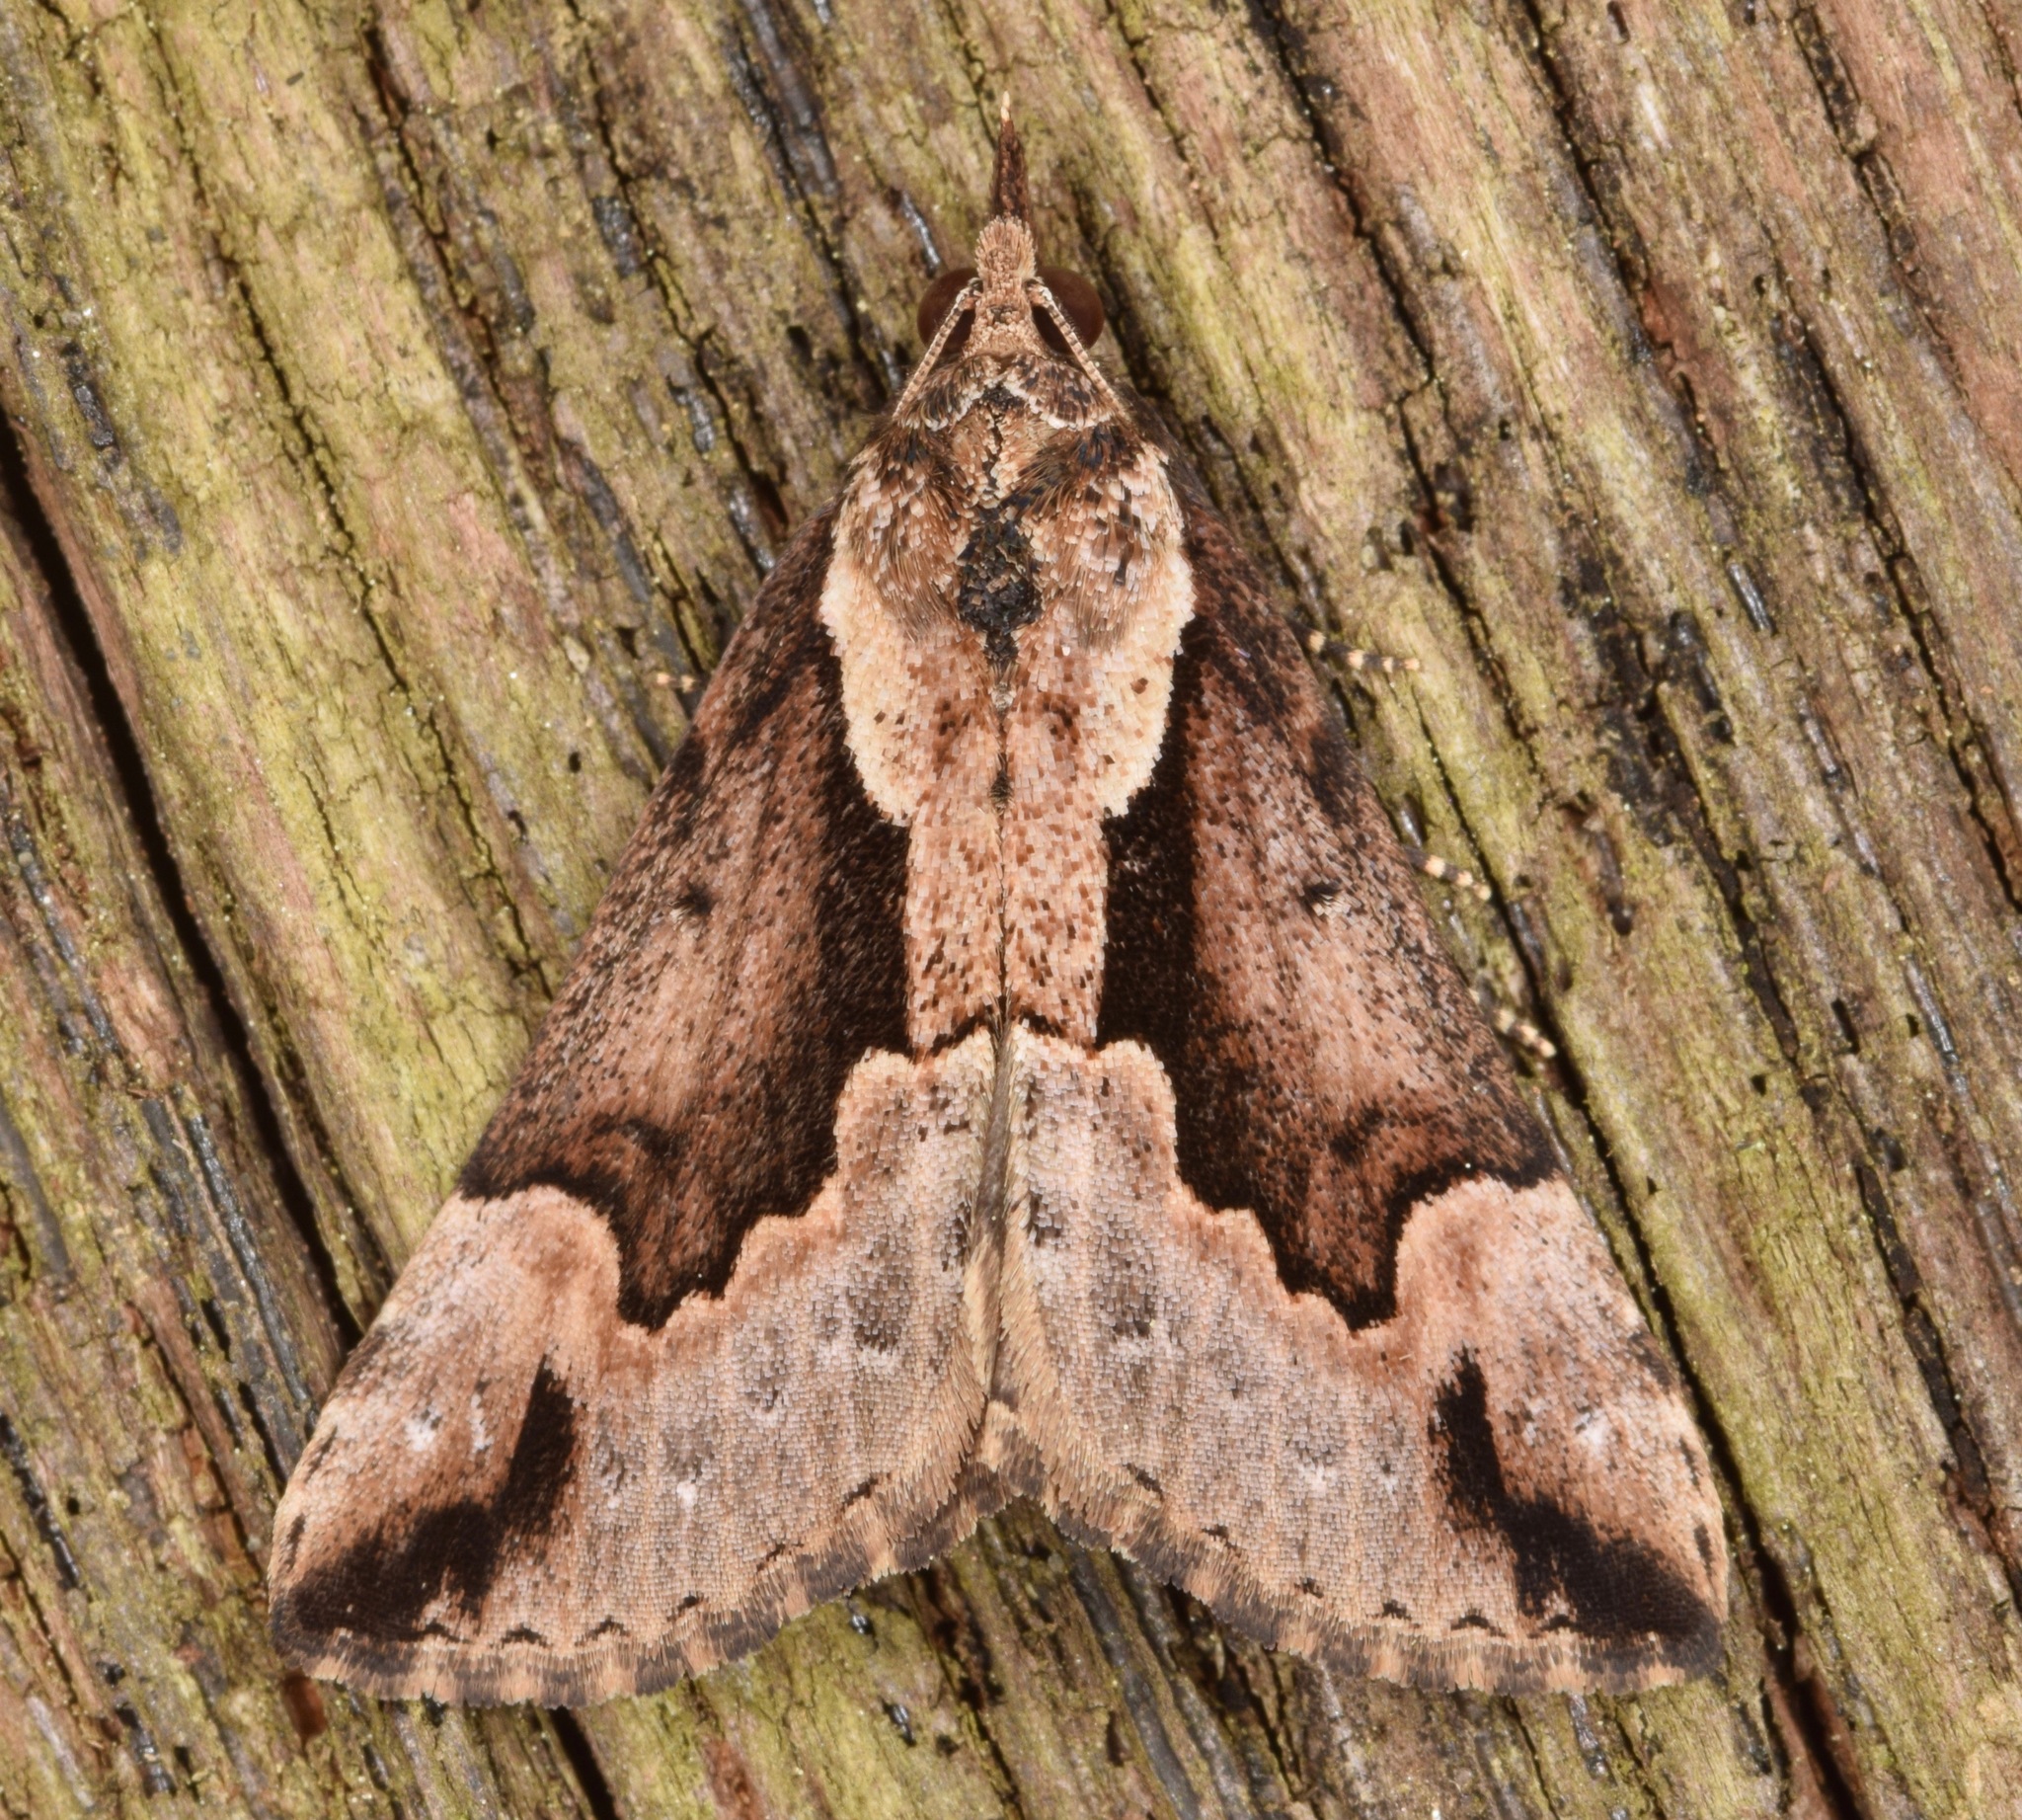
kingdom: Animalia
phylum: Arthropoda
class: Insecta
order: Lepidoptera
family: Erebidae
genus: Hypena
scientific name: Hypena baltimoralis
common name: Baltimore snout
